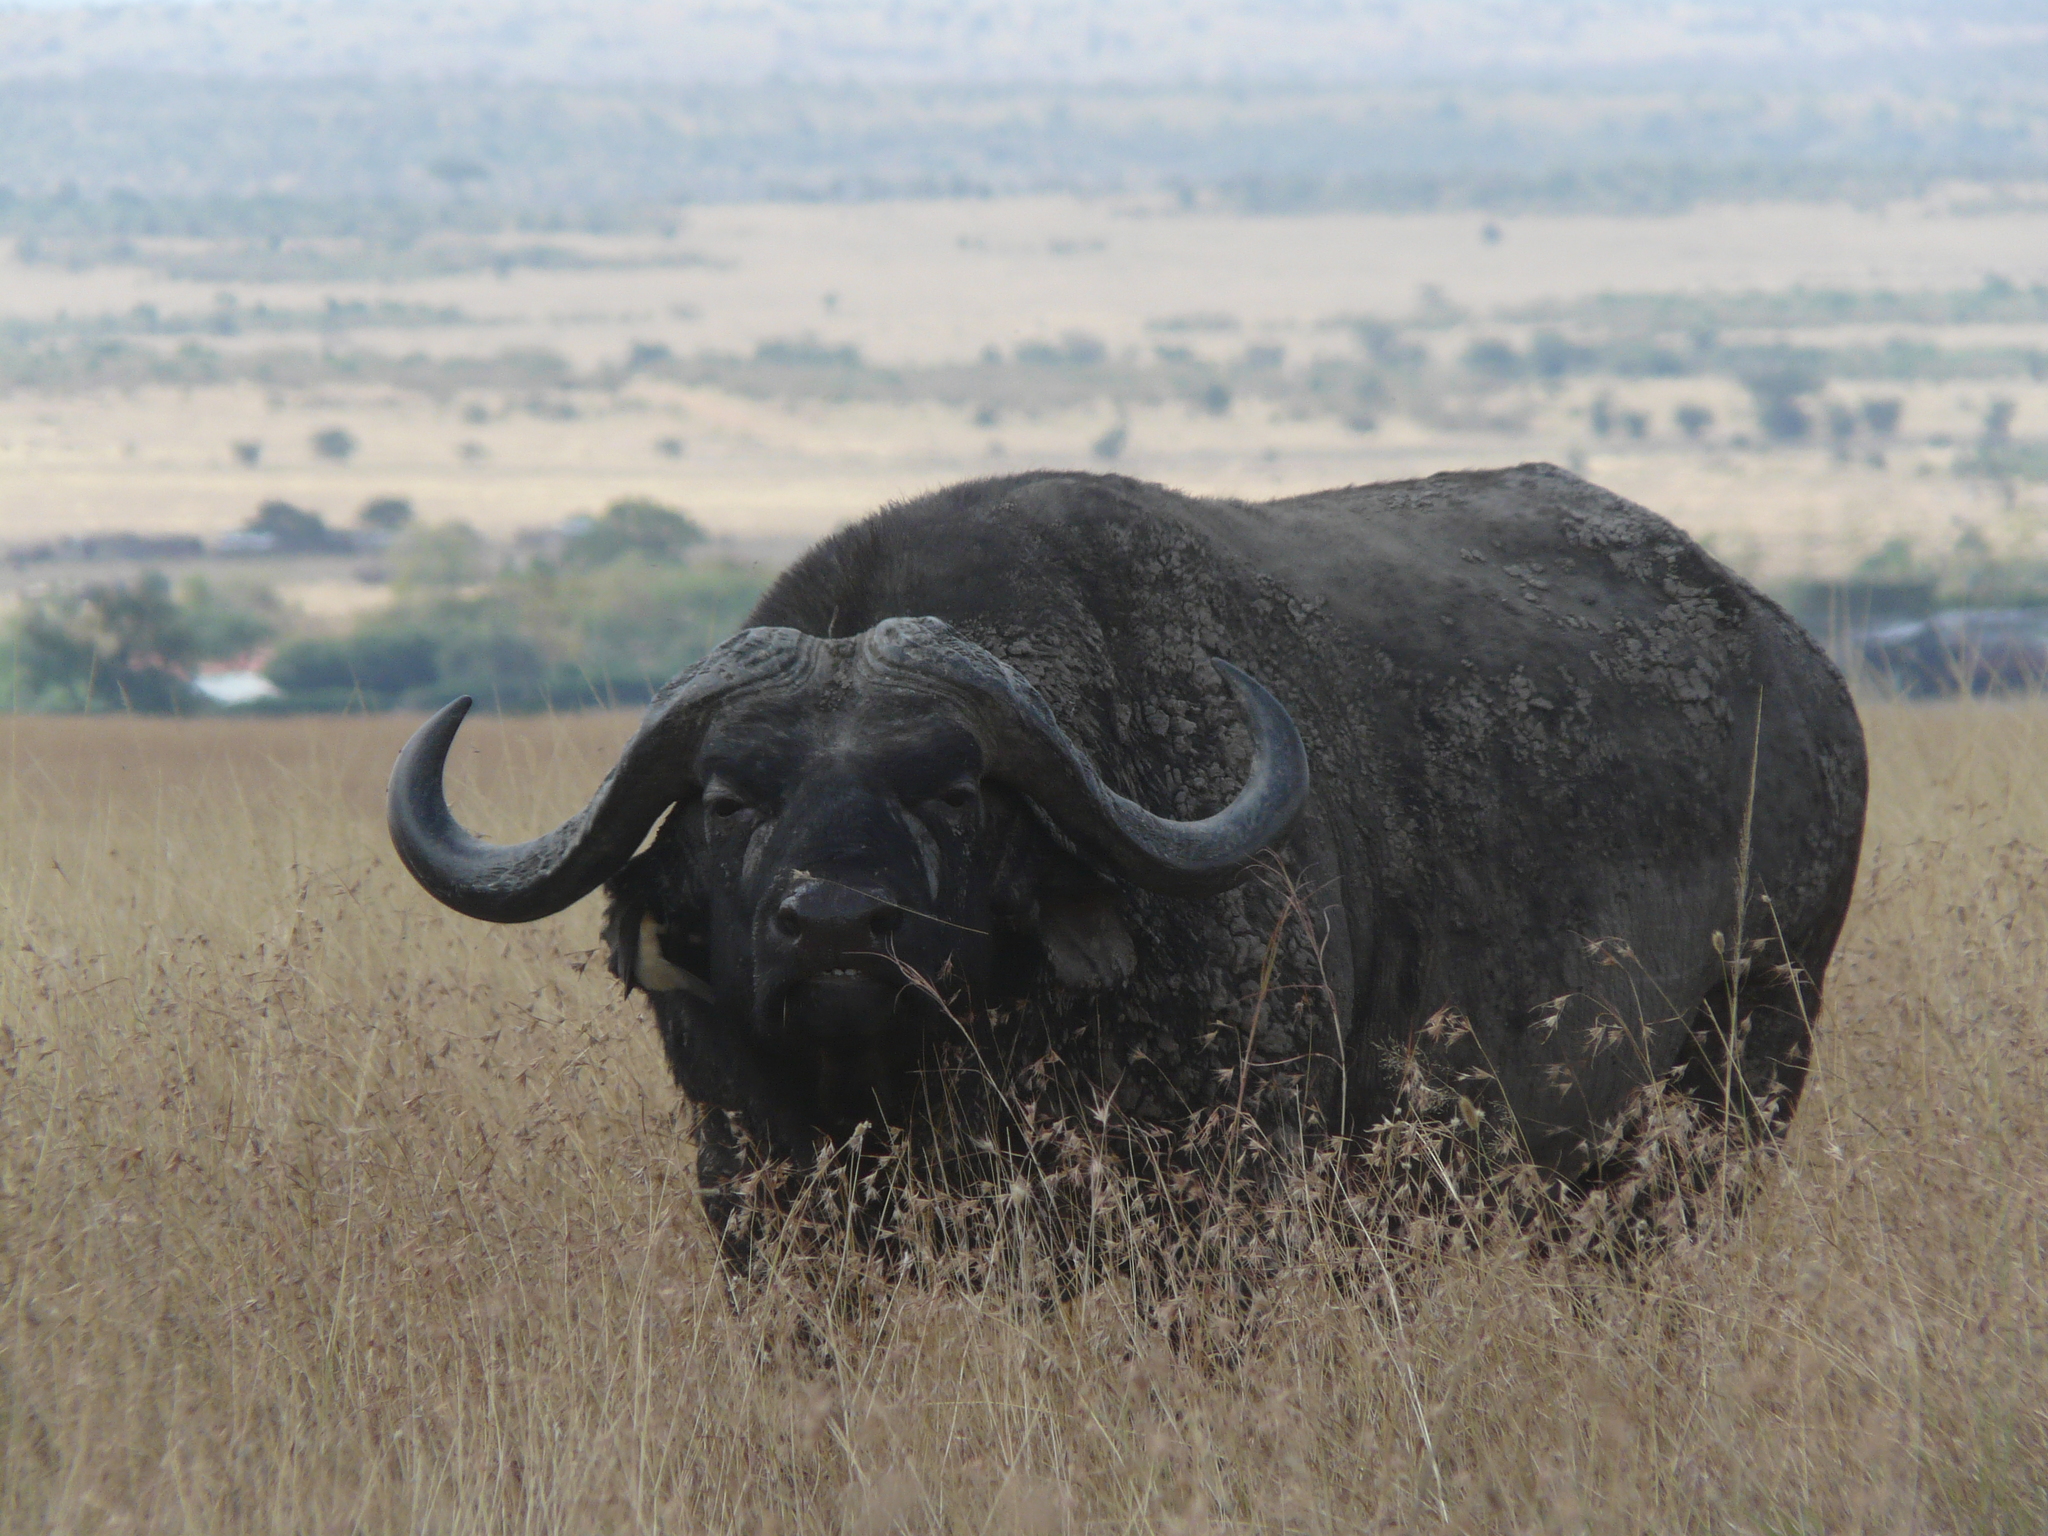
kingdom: Animalia
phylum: Chordata
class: Mammalia
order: Artiodactyla
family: Bovidae
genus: Syncerus
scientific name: Syncerus caffer
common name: African buffalo
